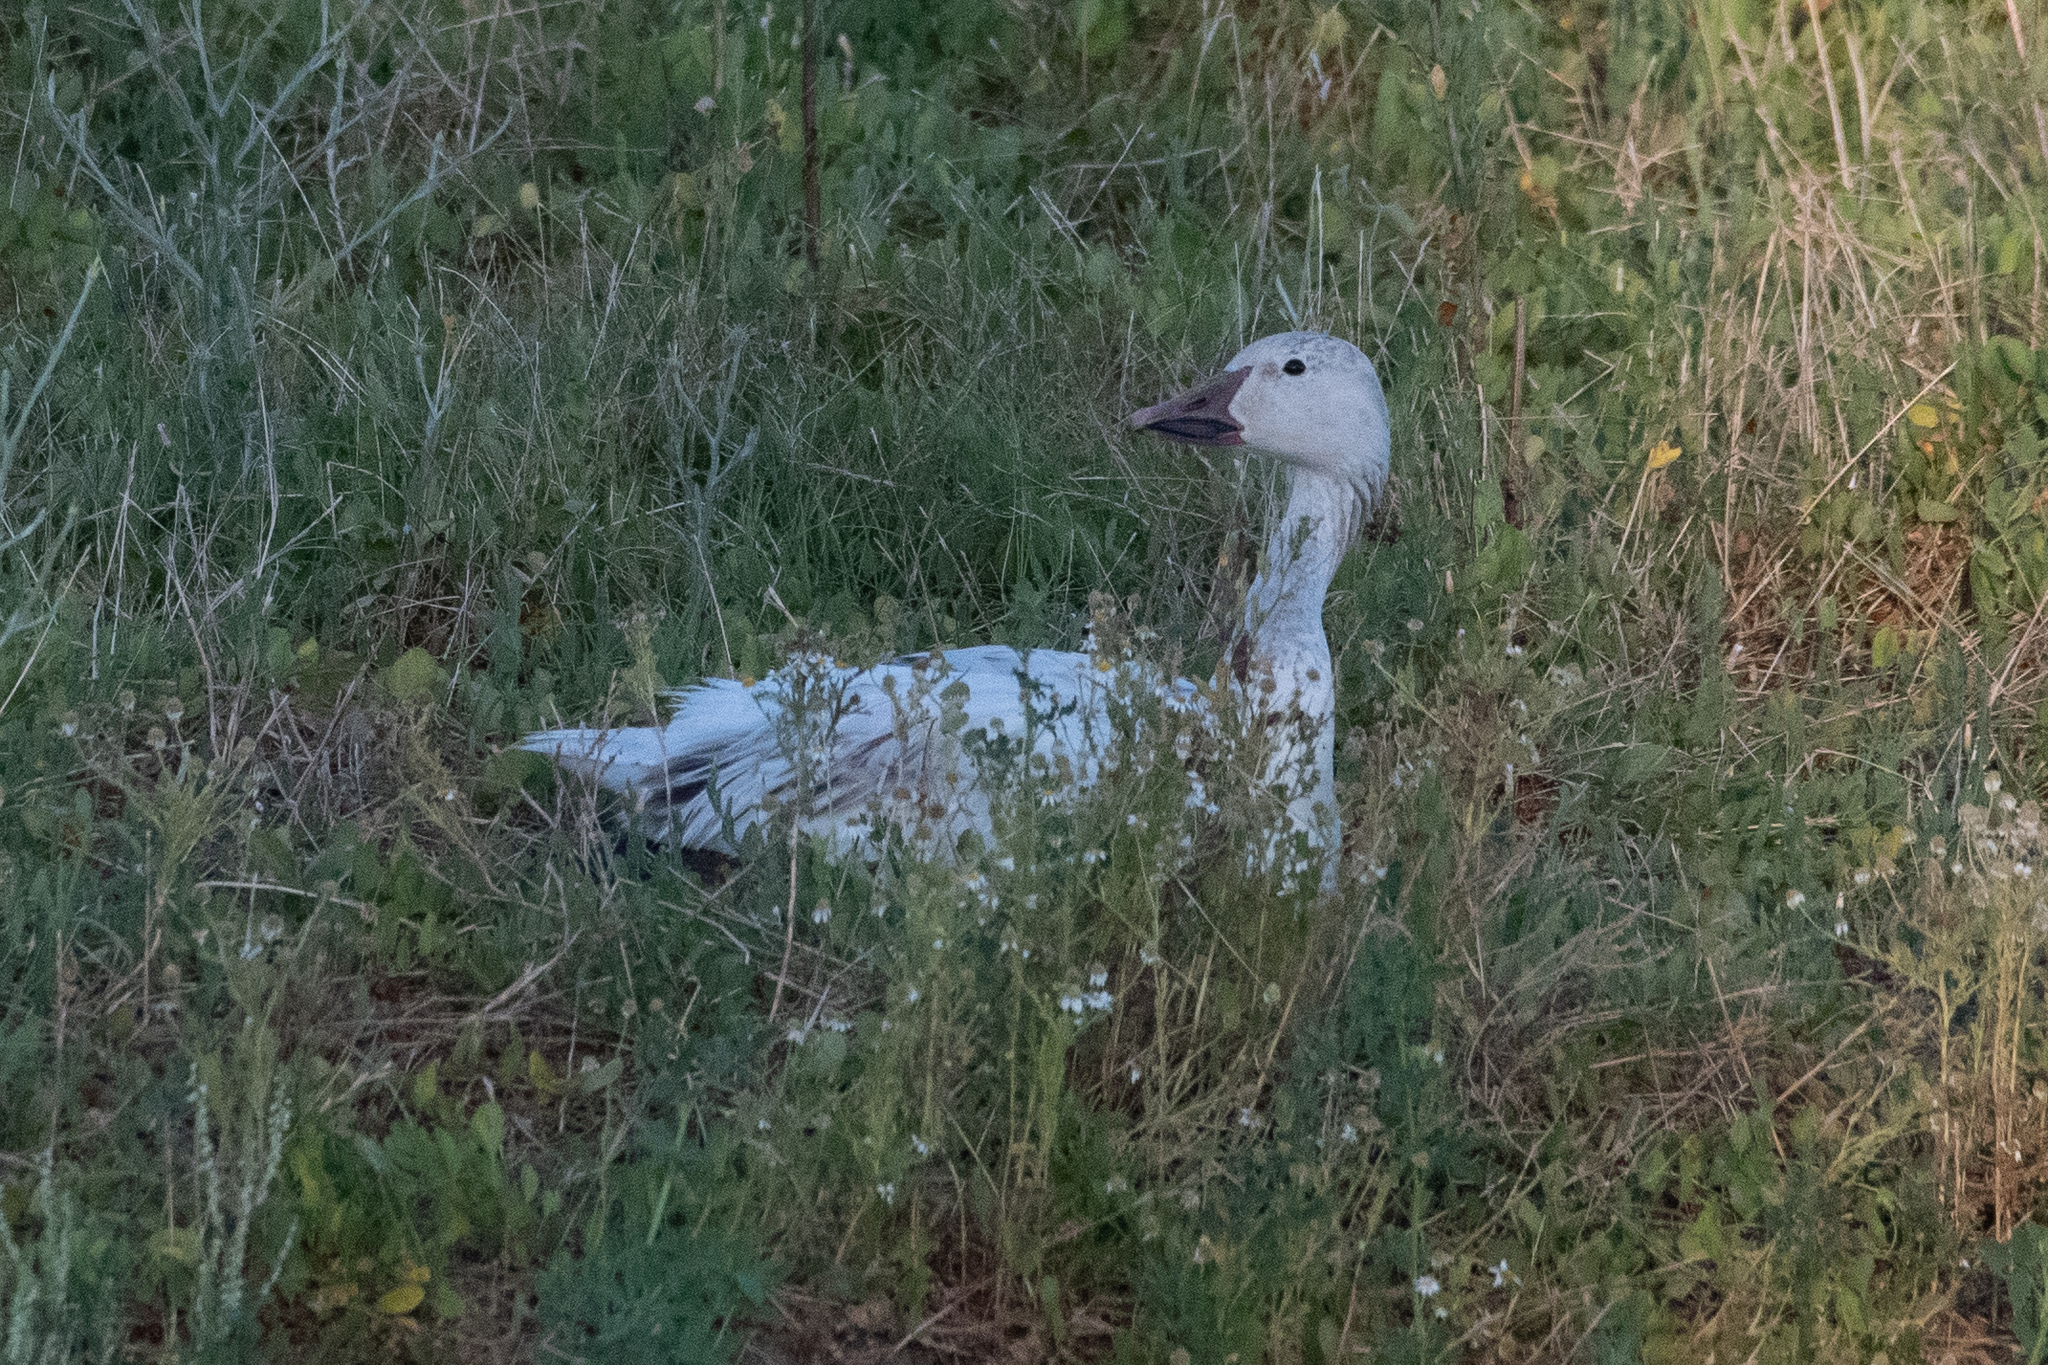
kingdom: Animalia
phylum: Chordata
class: Aves
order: Anseriformes
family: Anatidae
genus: Anser
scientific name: Anser caerulescens
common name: Snow goose
